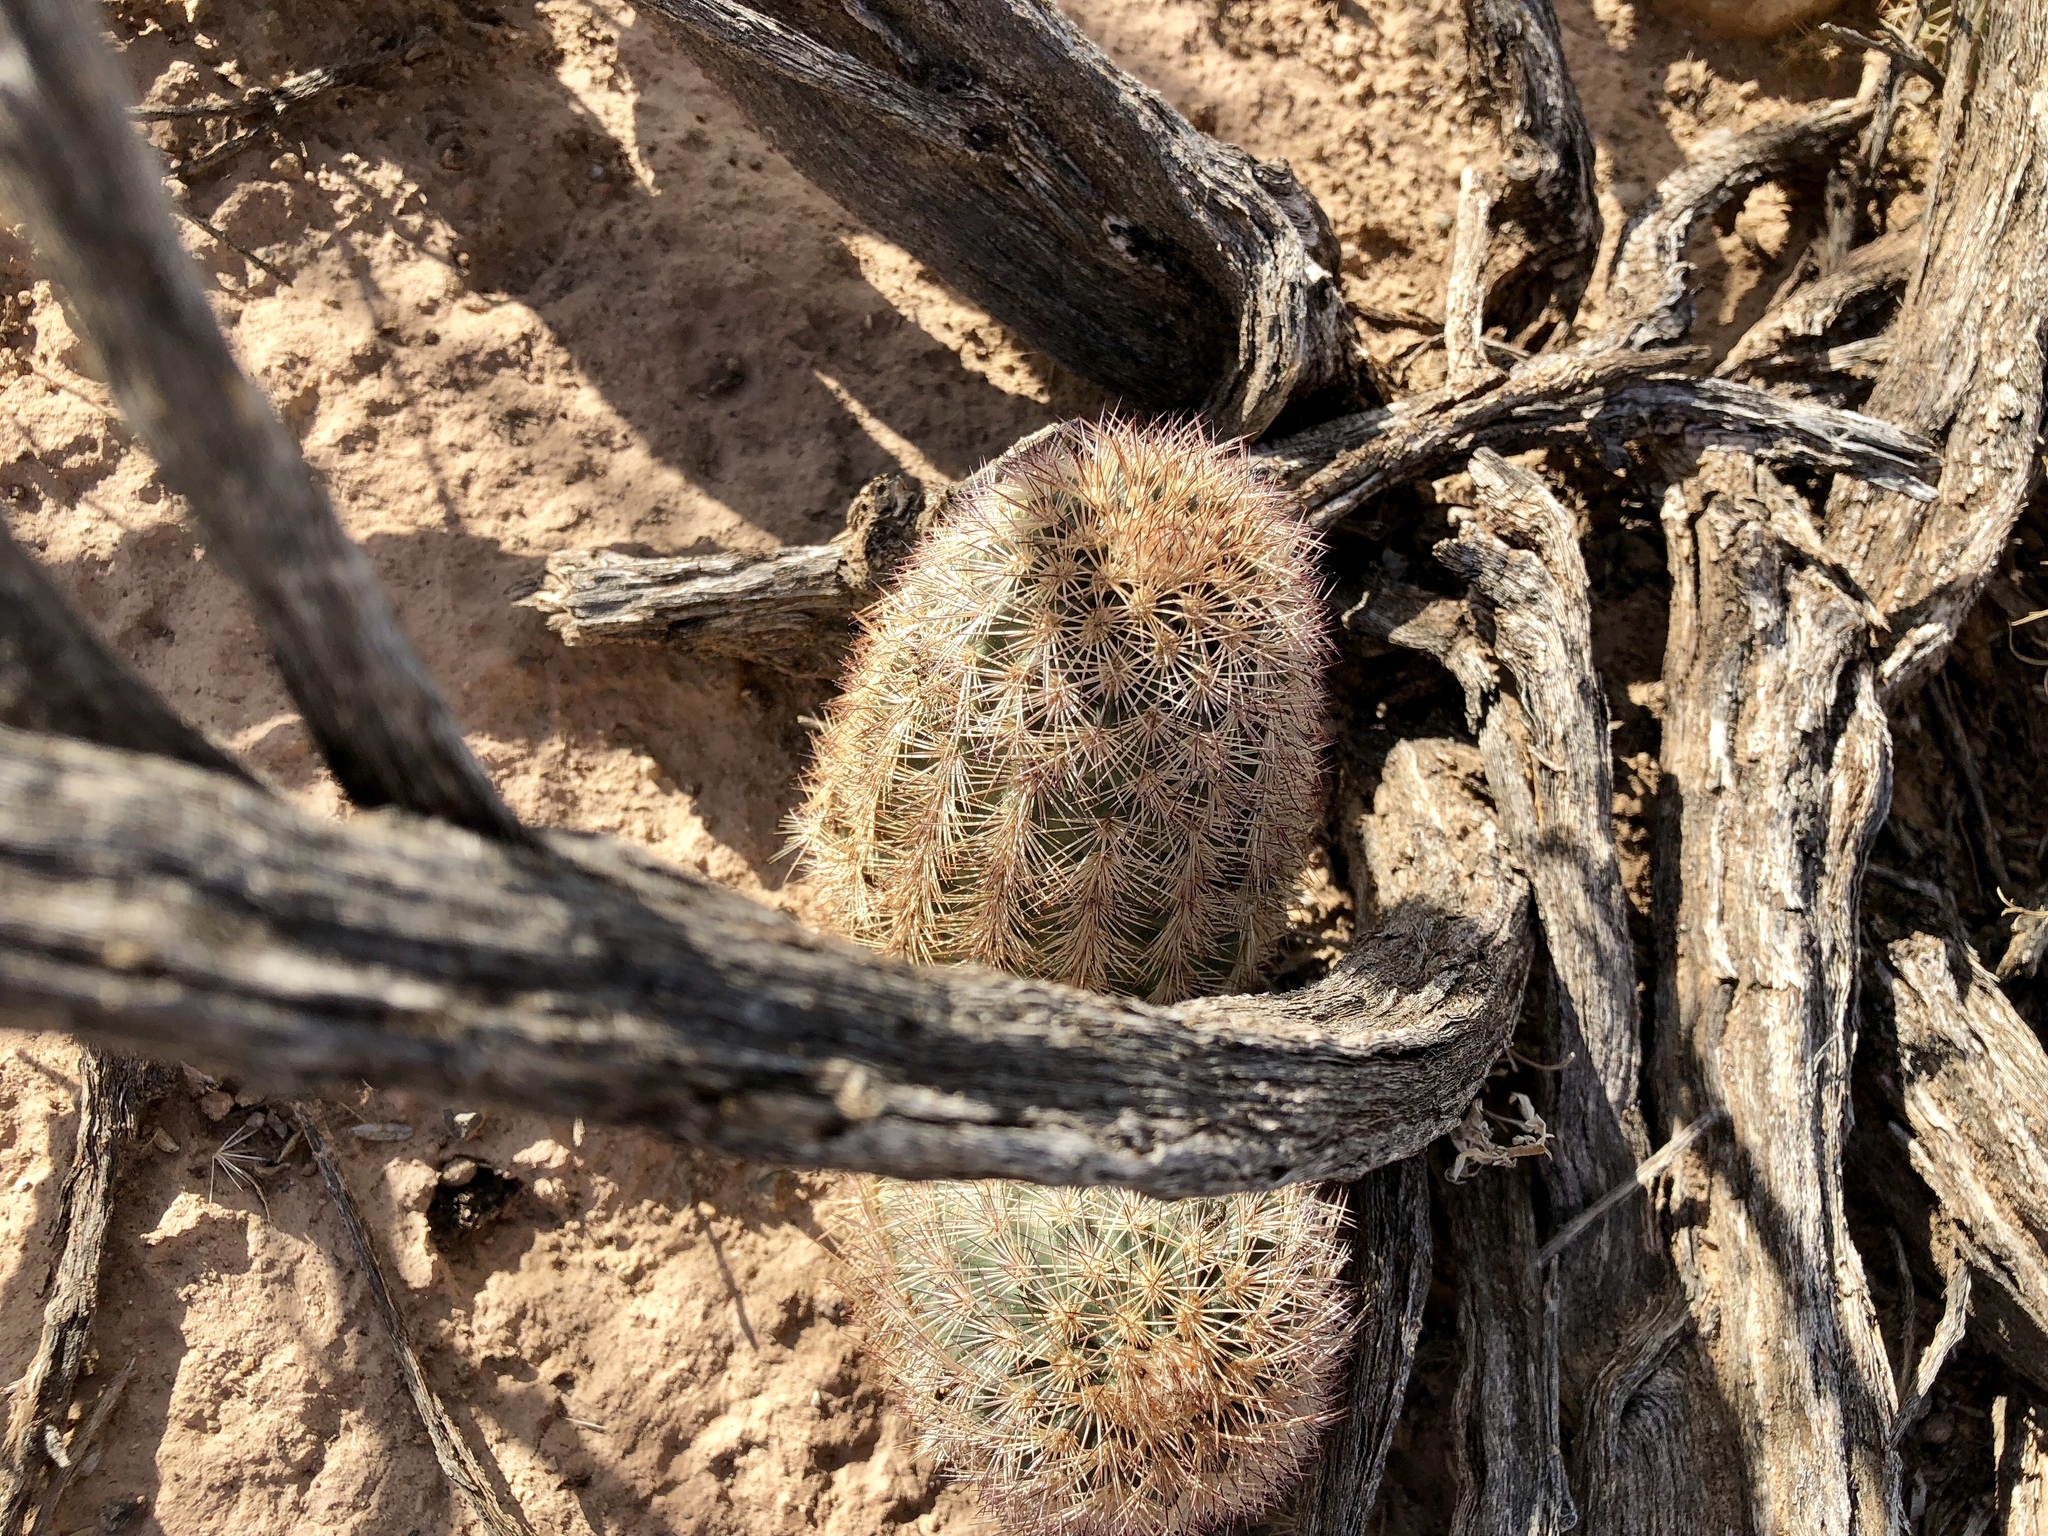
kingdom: Plantae
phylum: Tracheophyta
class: Magnoliopsida
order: Caryophyllales
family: Cactaceae
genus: Echinocereus
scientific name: Echinocereus dasyacanthus
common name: Spiny hedgehog cactus
